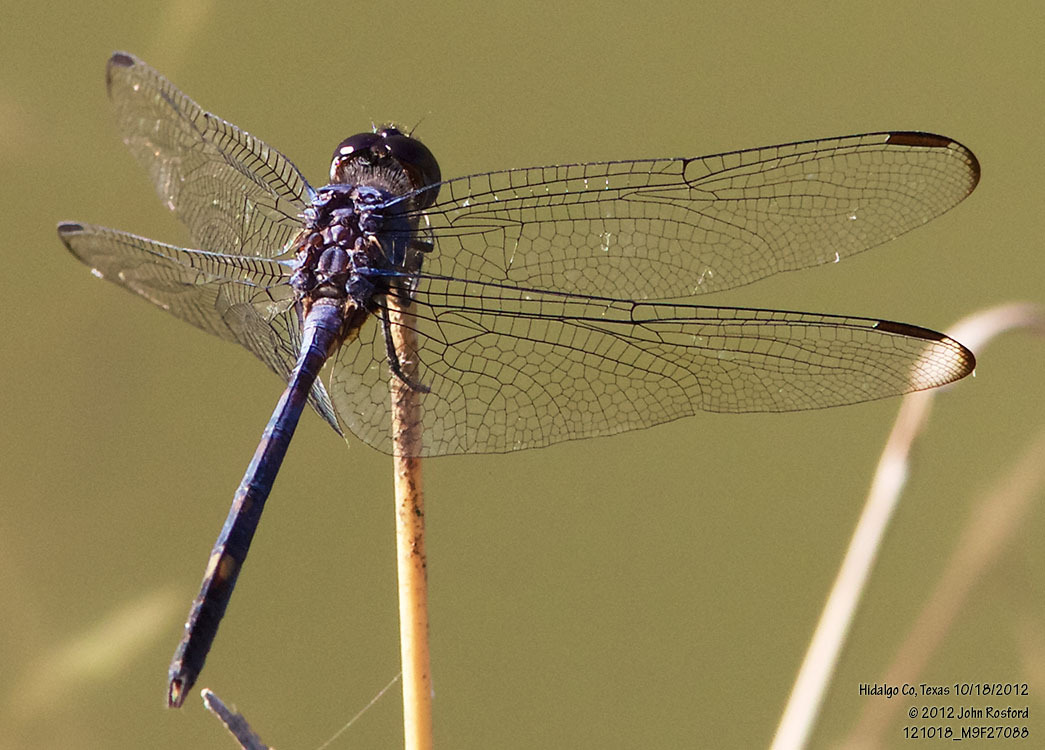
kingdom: Animalia
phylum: Arthropoda
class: Insecta
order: Odonata
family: Libellulidae
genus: Dythemis
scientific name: Dythemis nigrescens
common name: Black setwing
